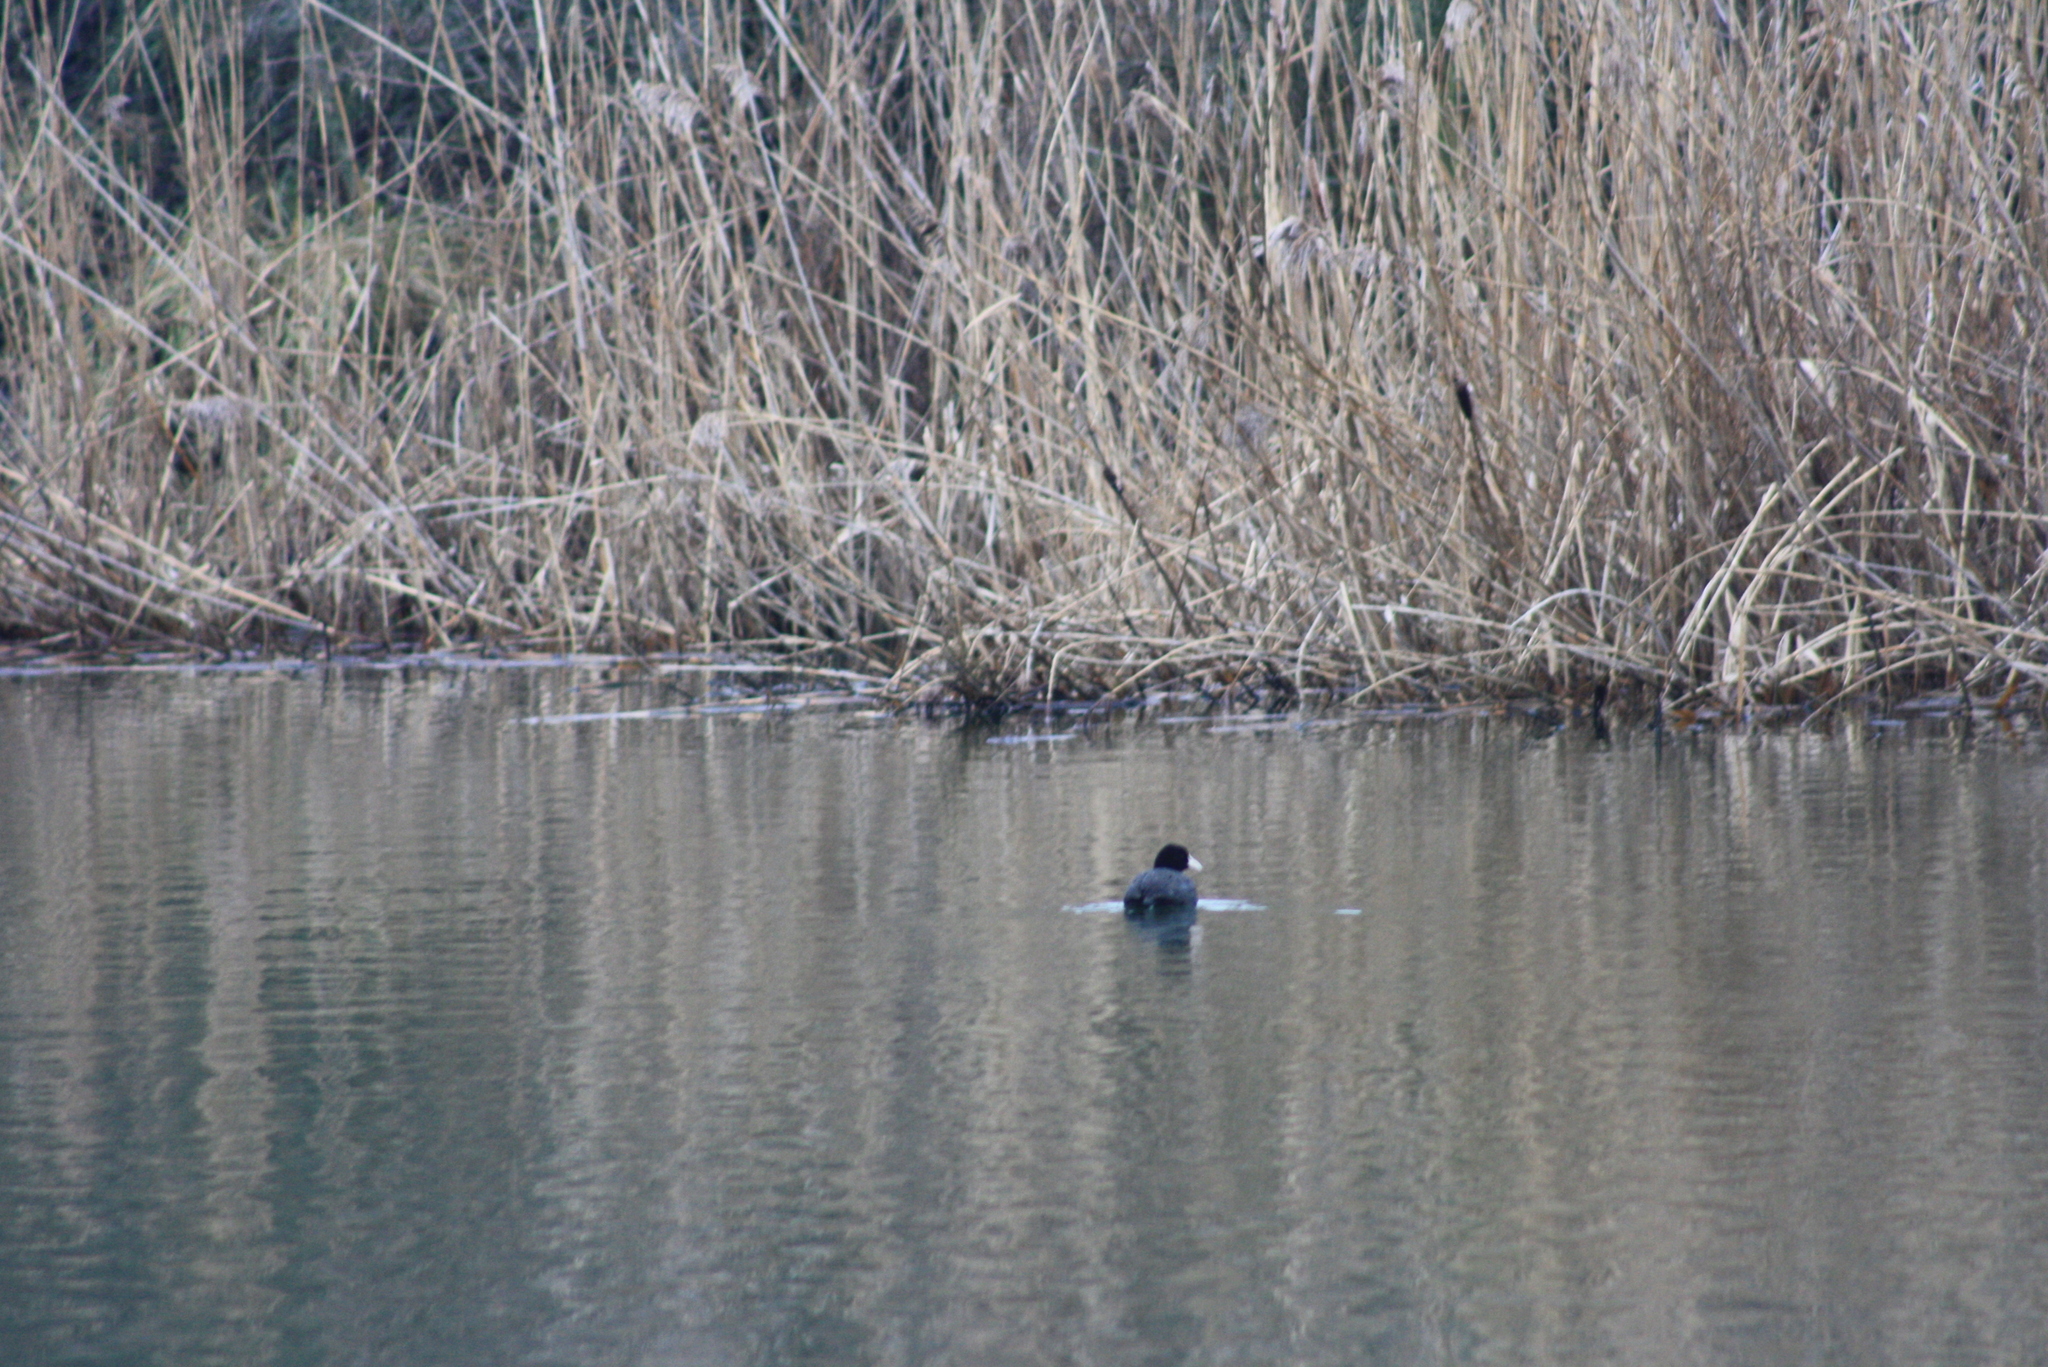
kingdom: Animalia
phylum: Chordata
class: Aves
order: Gruiformes
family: Rallidae
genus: Fulica
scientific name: Fulica atra
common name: Eurasian coot
